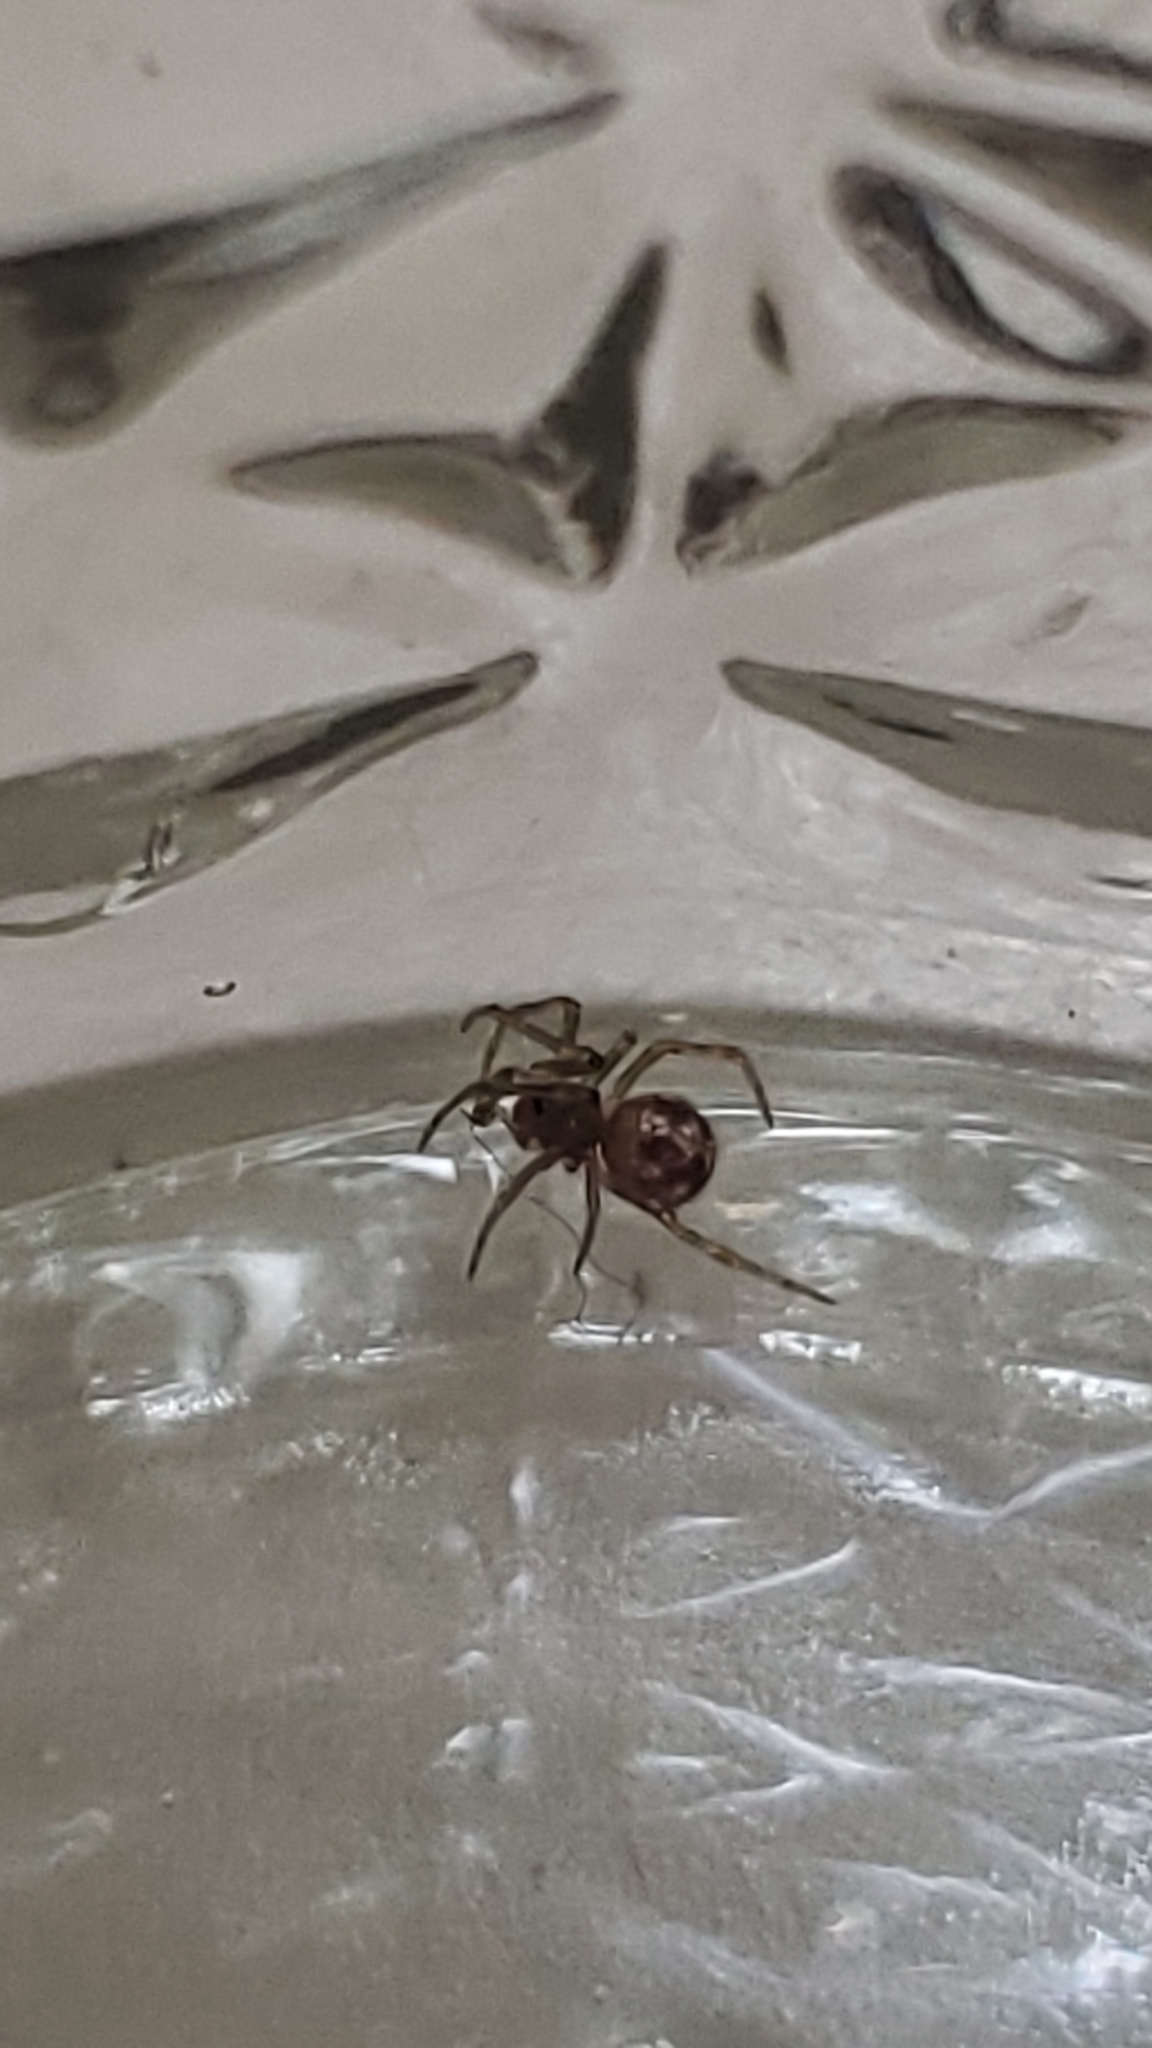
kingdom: Animalia
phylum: Arthropoda
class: Arachnida
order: Araneae
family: Theridiidae
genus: Steatoda
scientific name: Steatoda triangulosa
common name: Triangulate bud spider
